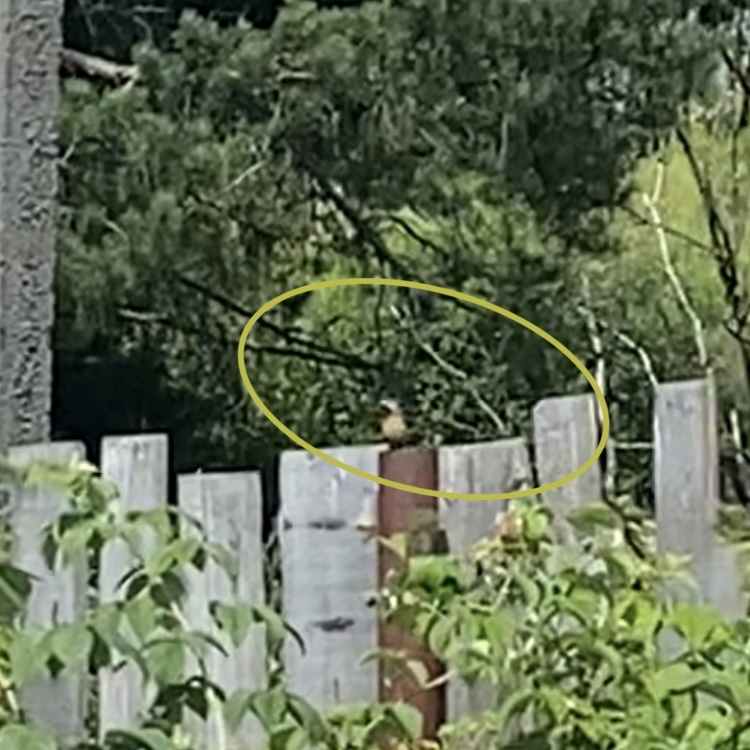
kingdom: Animalia
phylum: Chordata
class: Aves
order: Passeriformes
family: Muscicapidae
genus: Phoenicurus
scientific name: Phoenicurus phoenicurus
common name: Common redstart
